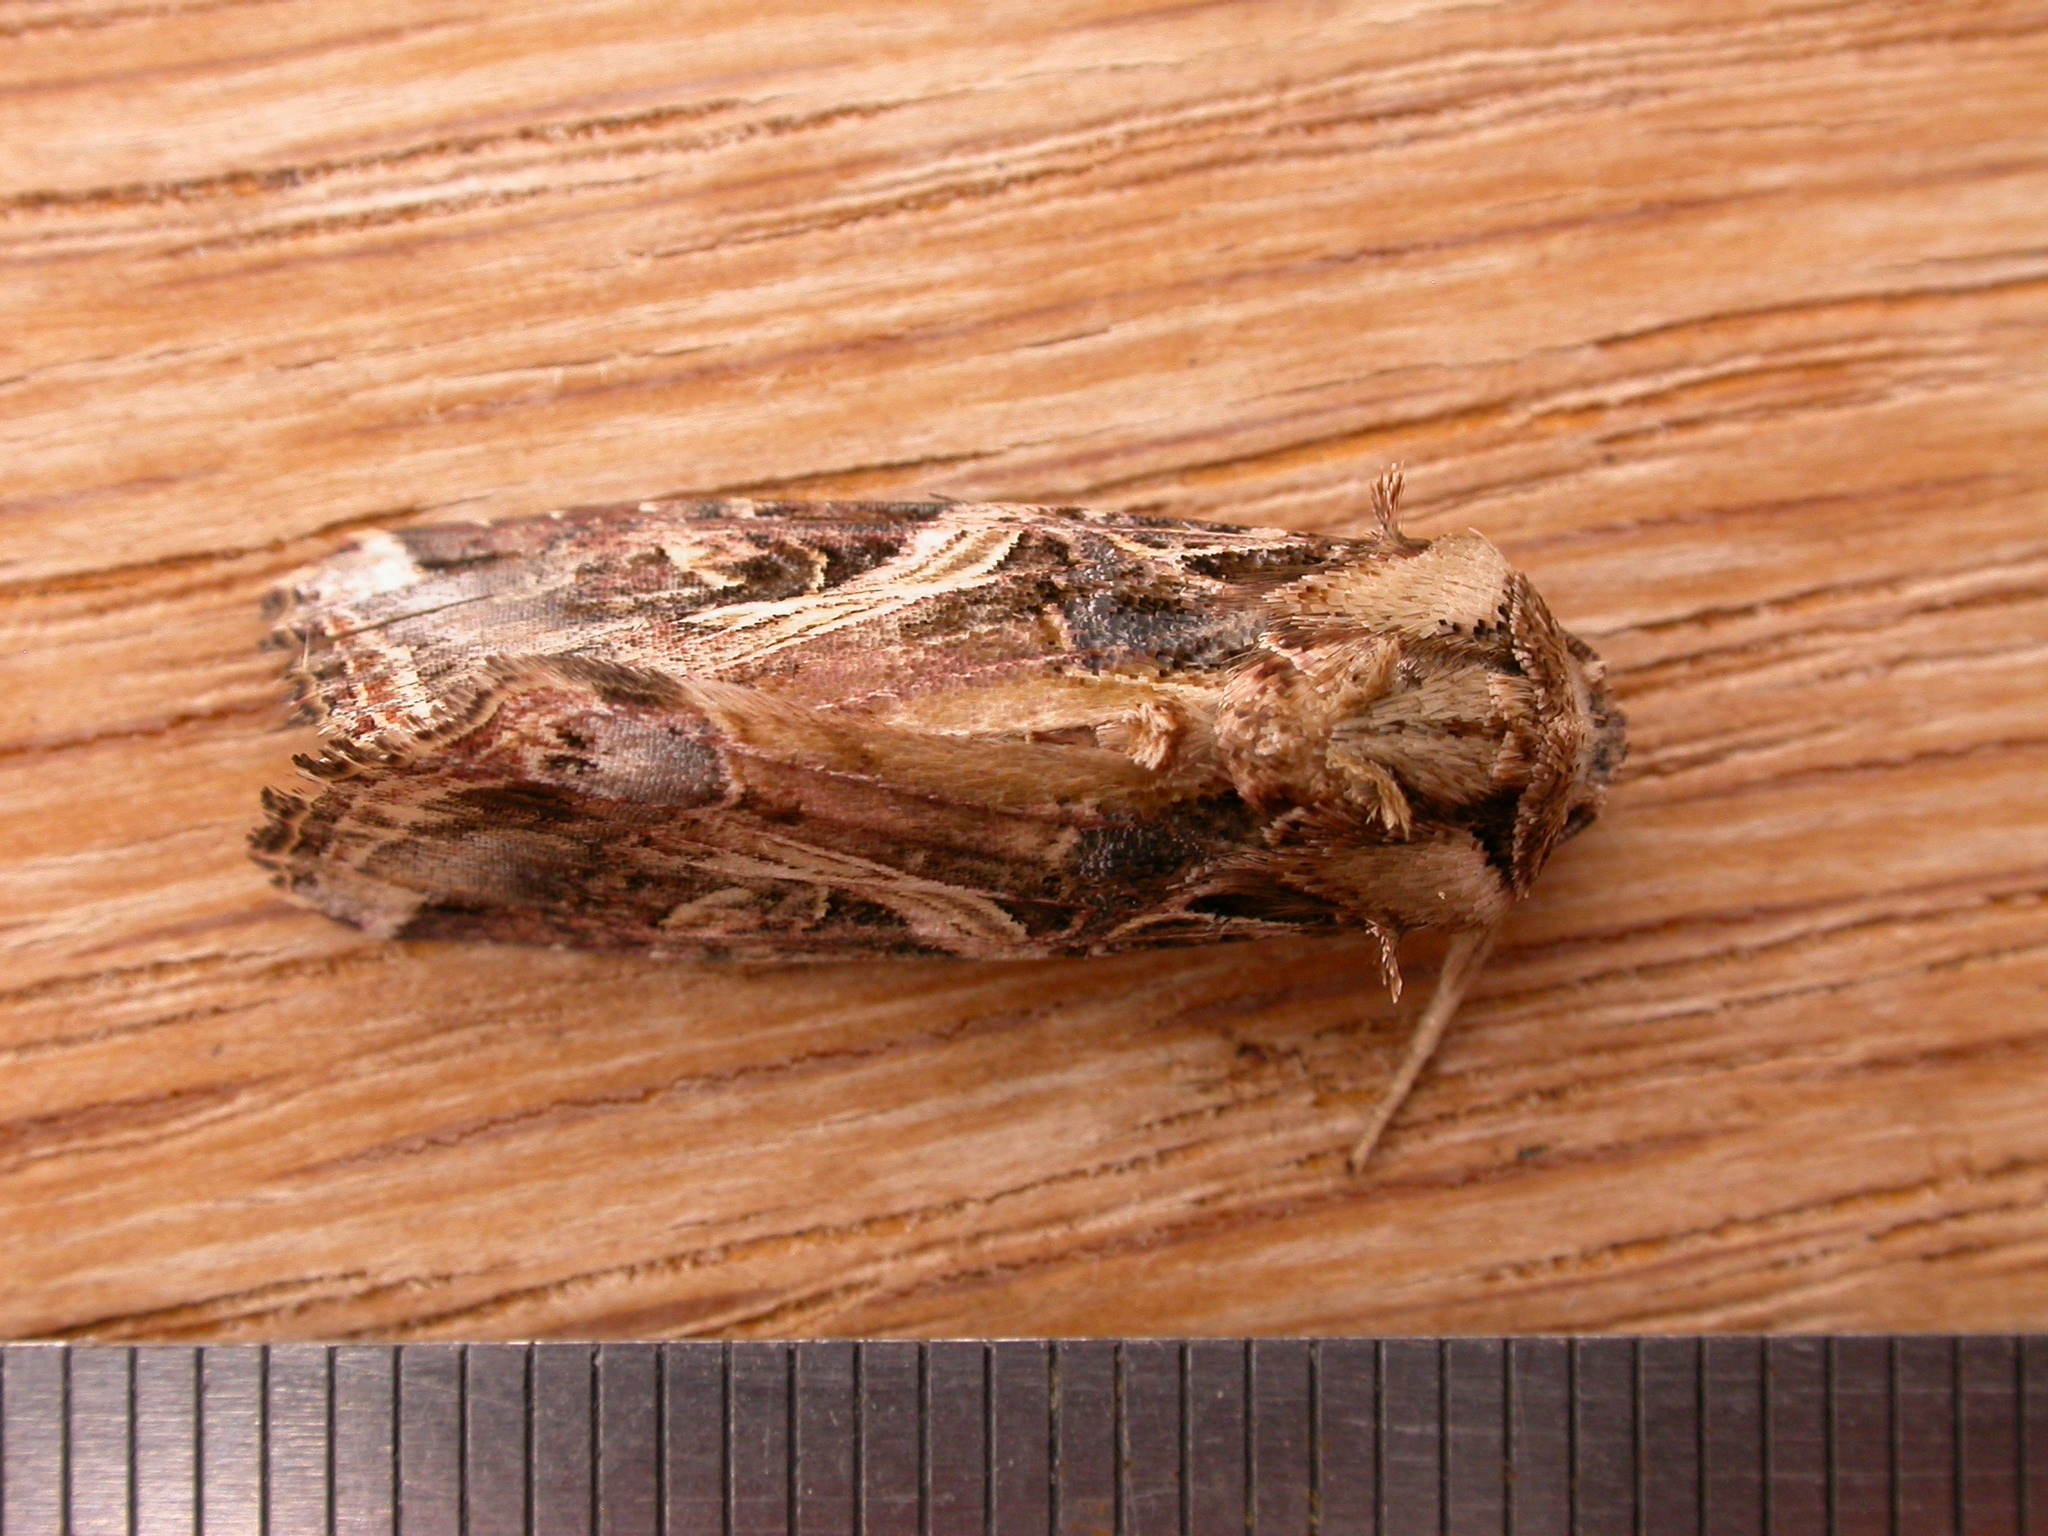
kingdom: Animalia
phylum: Arthropoda
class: Insecta
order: Lepidoptera
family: Noctuidae
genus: Spodoptera
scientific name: Spodoptera litura
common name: Asian cotton leafworm
